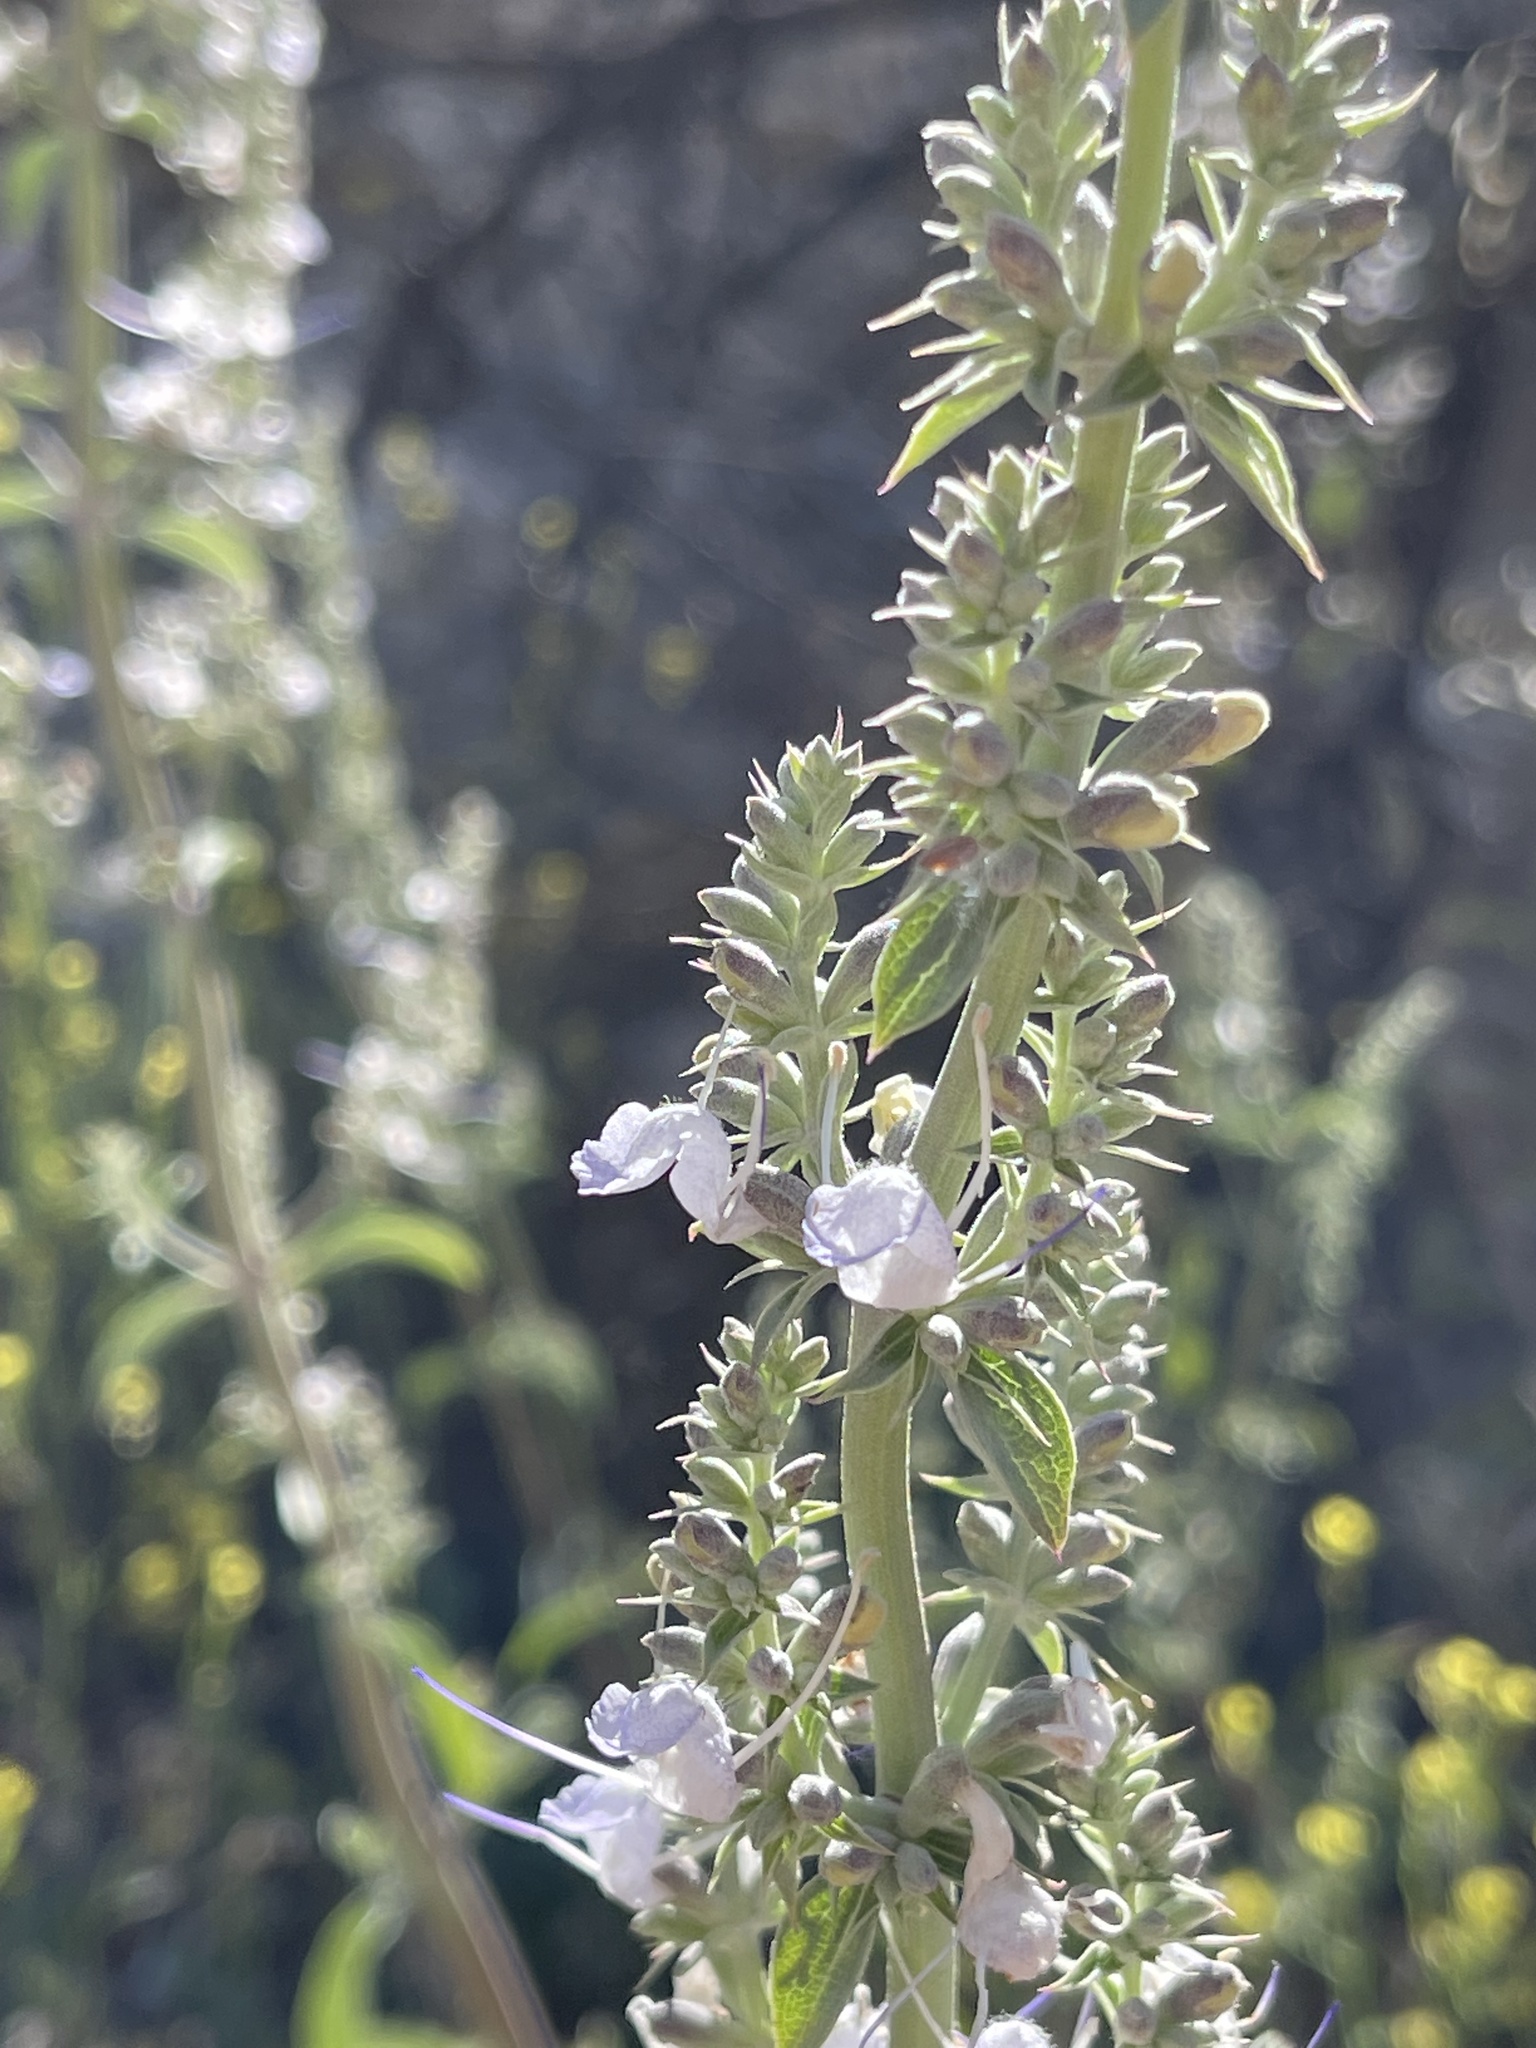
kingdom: Plantae
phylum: Tracheophyta
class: Magnoliopsida
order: Lamiales
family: Lamiaceae
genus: Salvia
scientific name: Salvia apiana
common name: White sage
